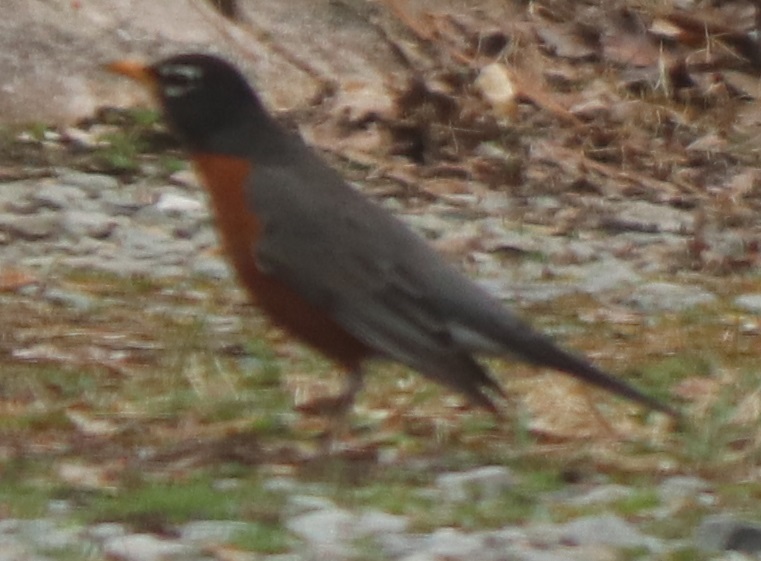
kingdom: Animalia
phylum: Chordata
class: Aves
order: Passeriformes
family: Turdidae
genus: Turdus
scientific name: Turdus migratorius
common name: American robin
